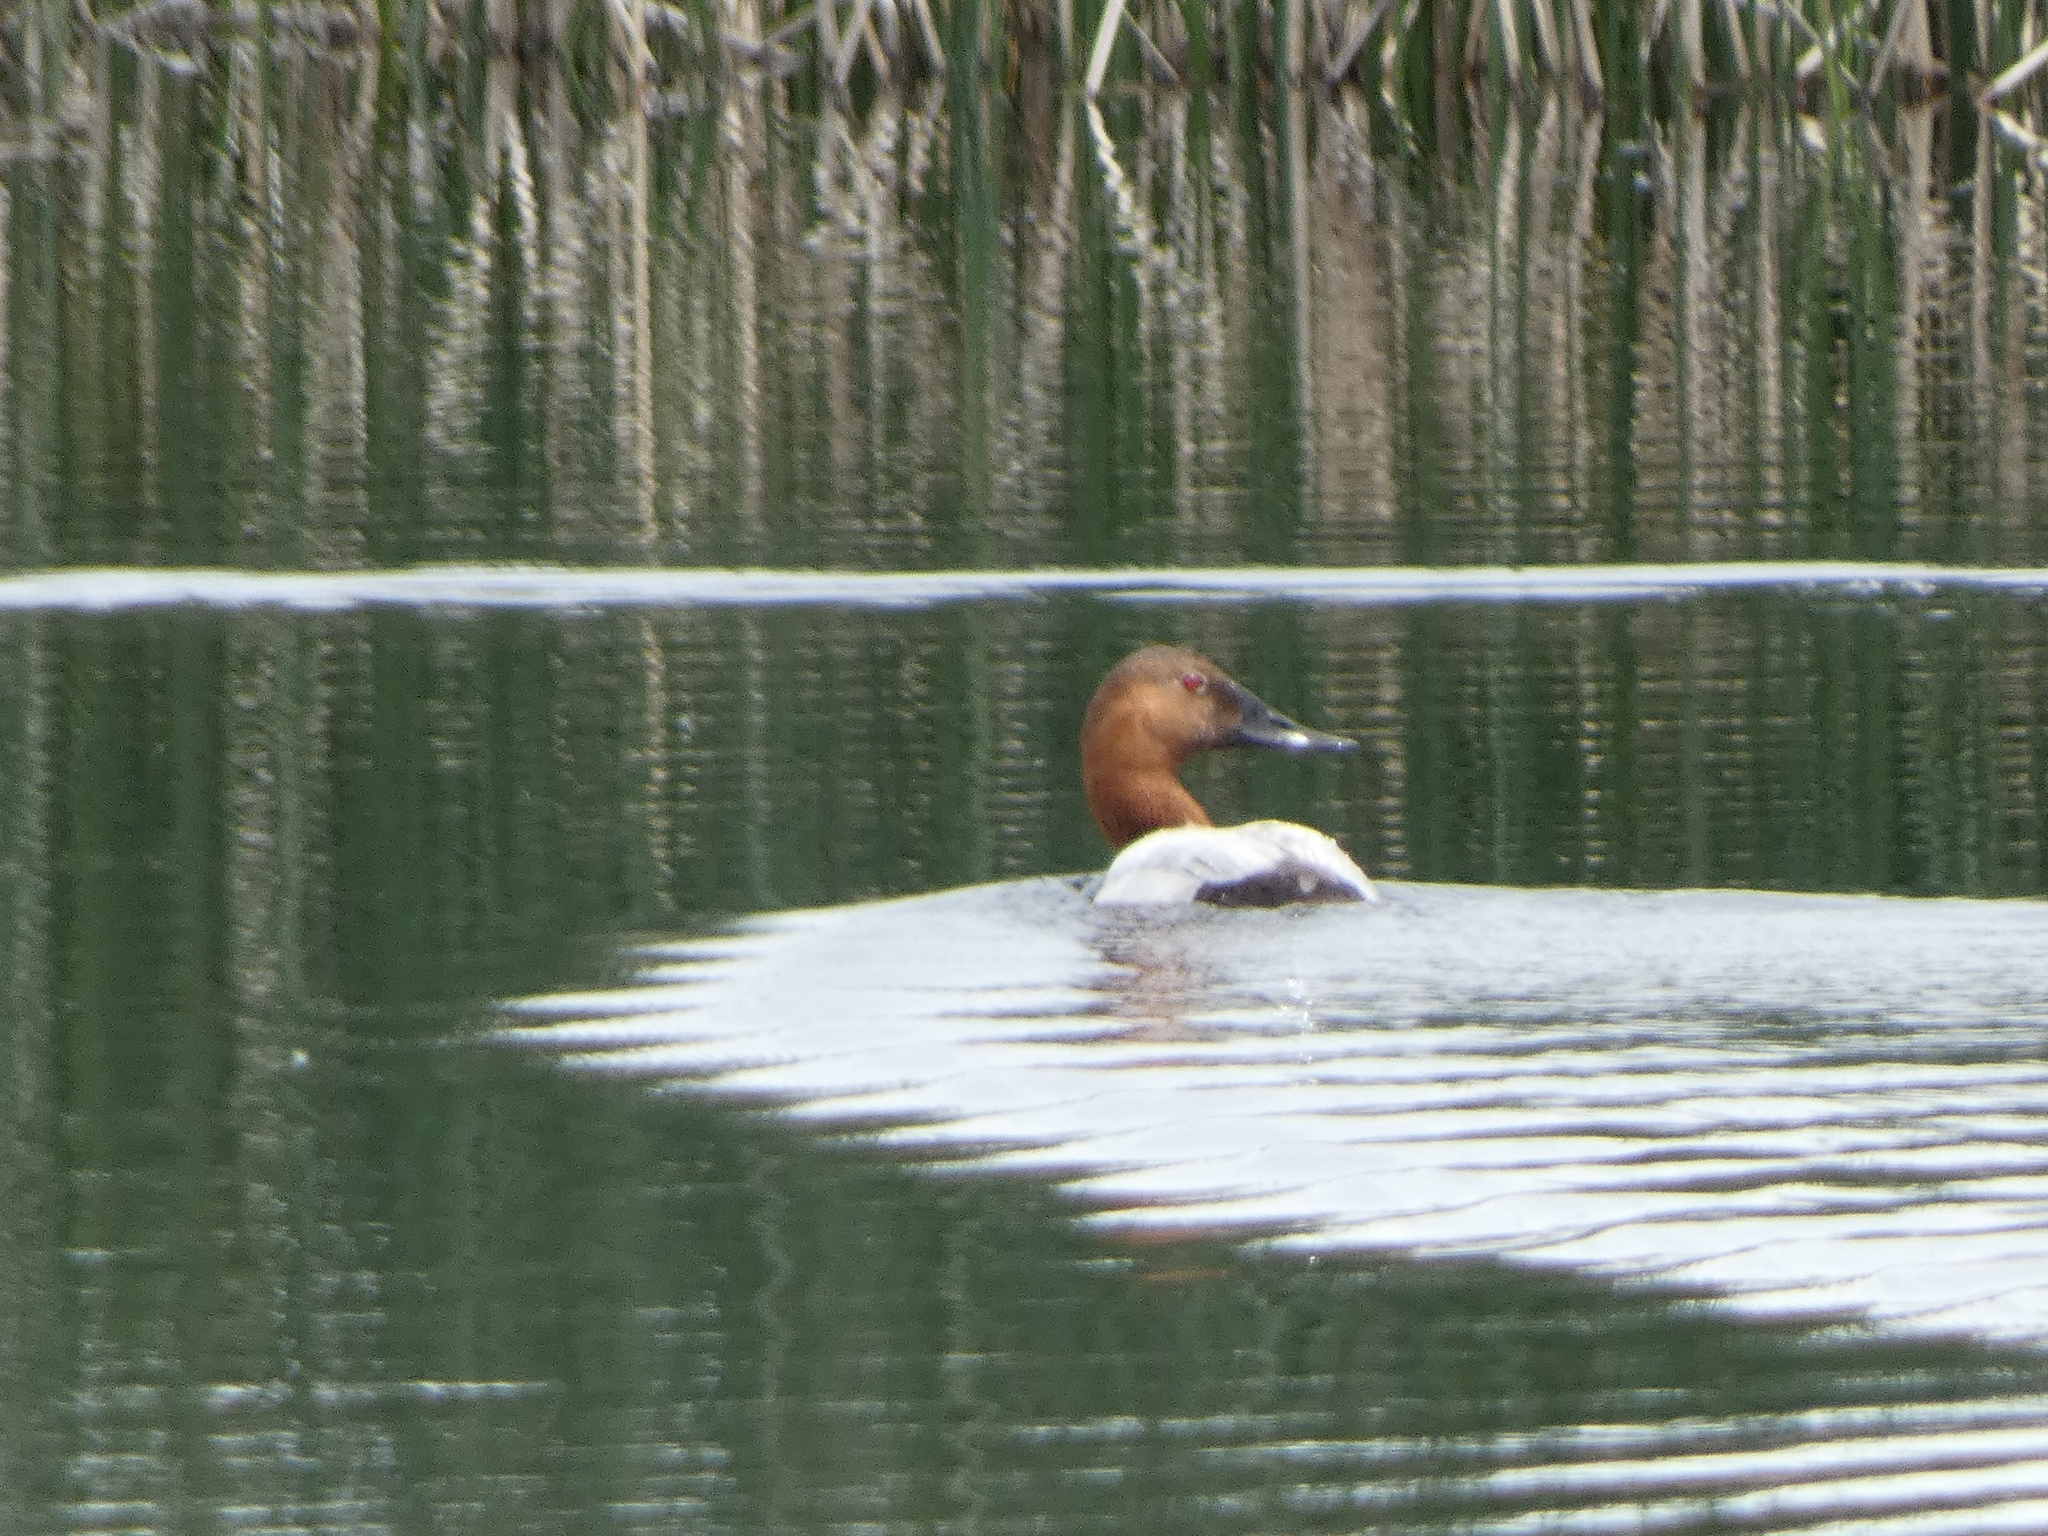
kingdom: Animalia
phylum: Chordata
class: Aves
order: Anseriformes
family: Anatidae
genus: Aythya
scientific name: Aythya valisineria
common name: Canvasback
